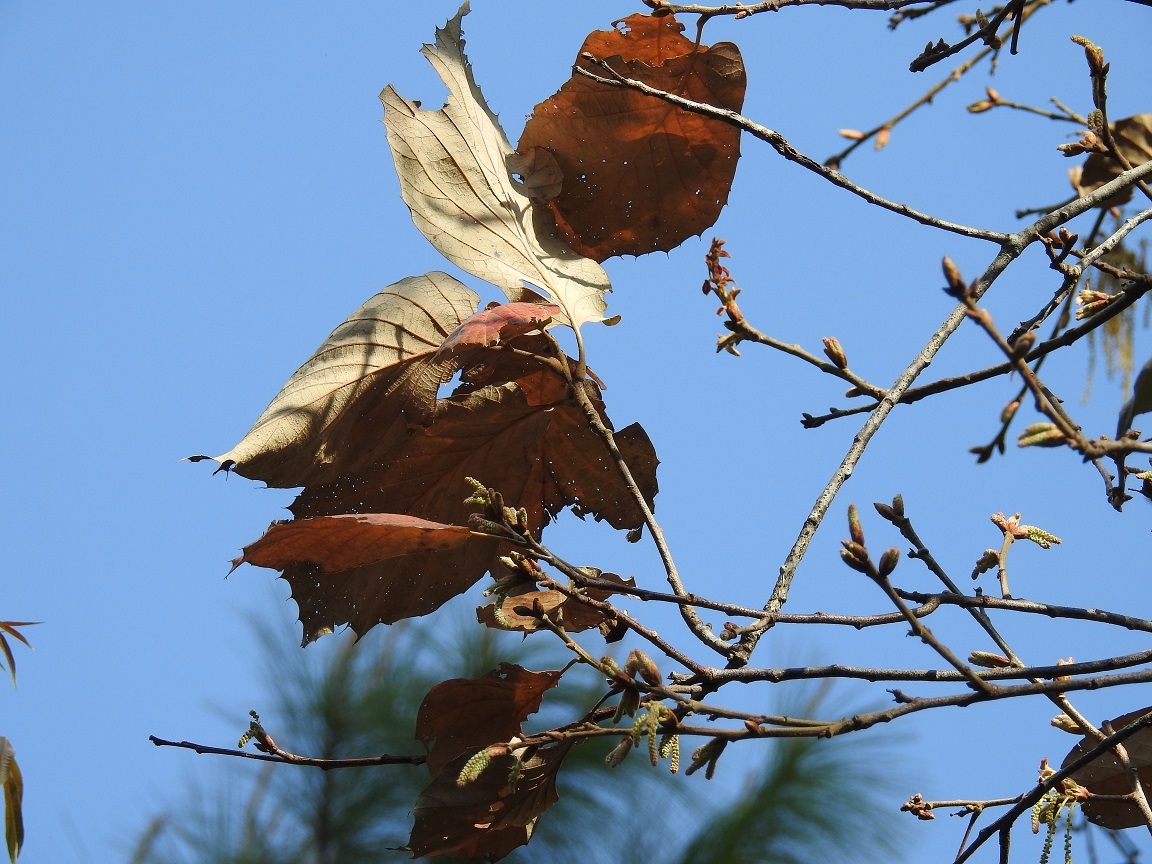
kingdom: Plantae
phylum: Tracheophyta
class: Magnoliopsida
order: Fagales
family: Fagaceae
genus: Quercus
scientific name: Quercus calophylla
